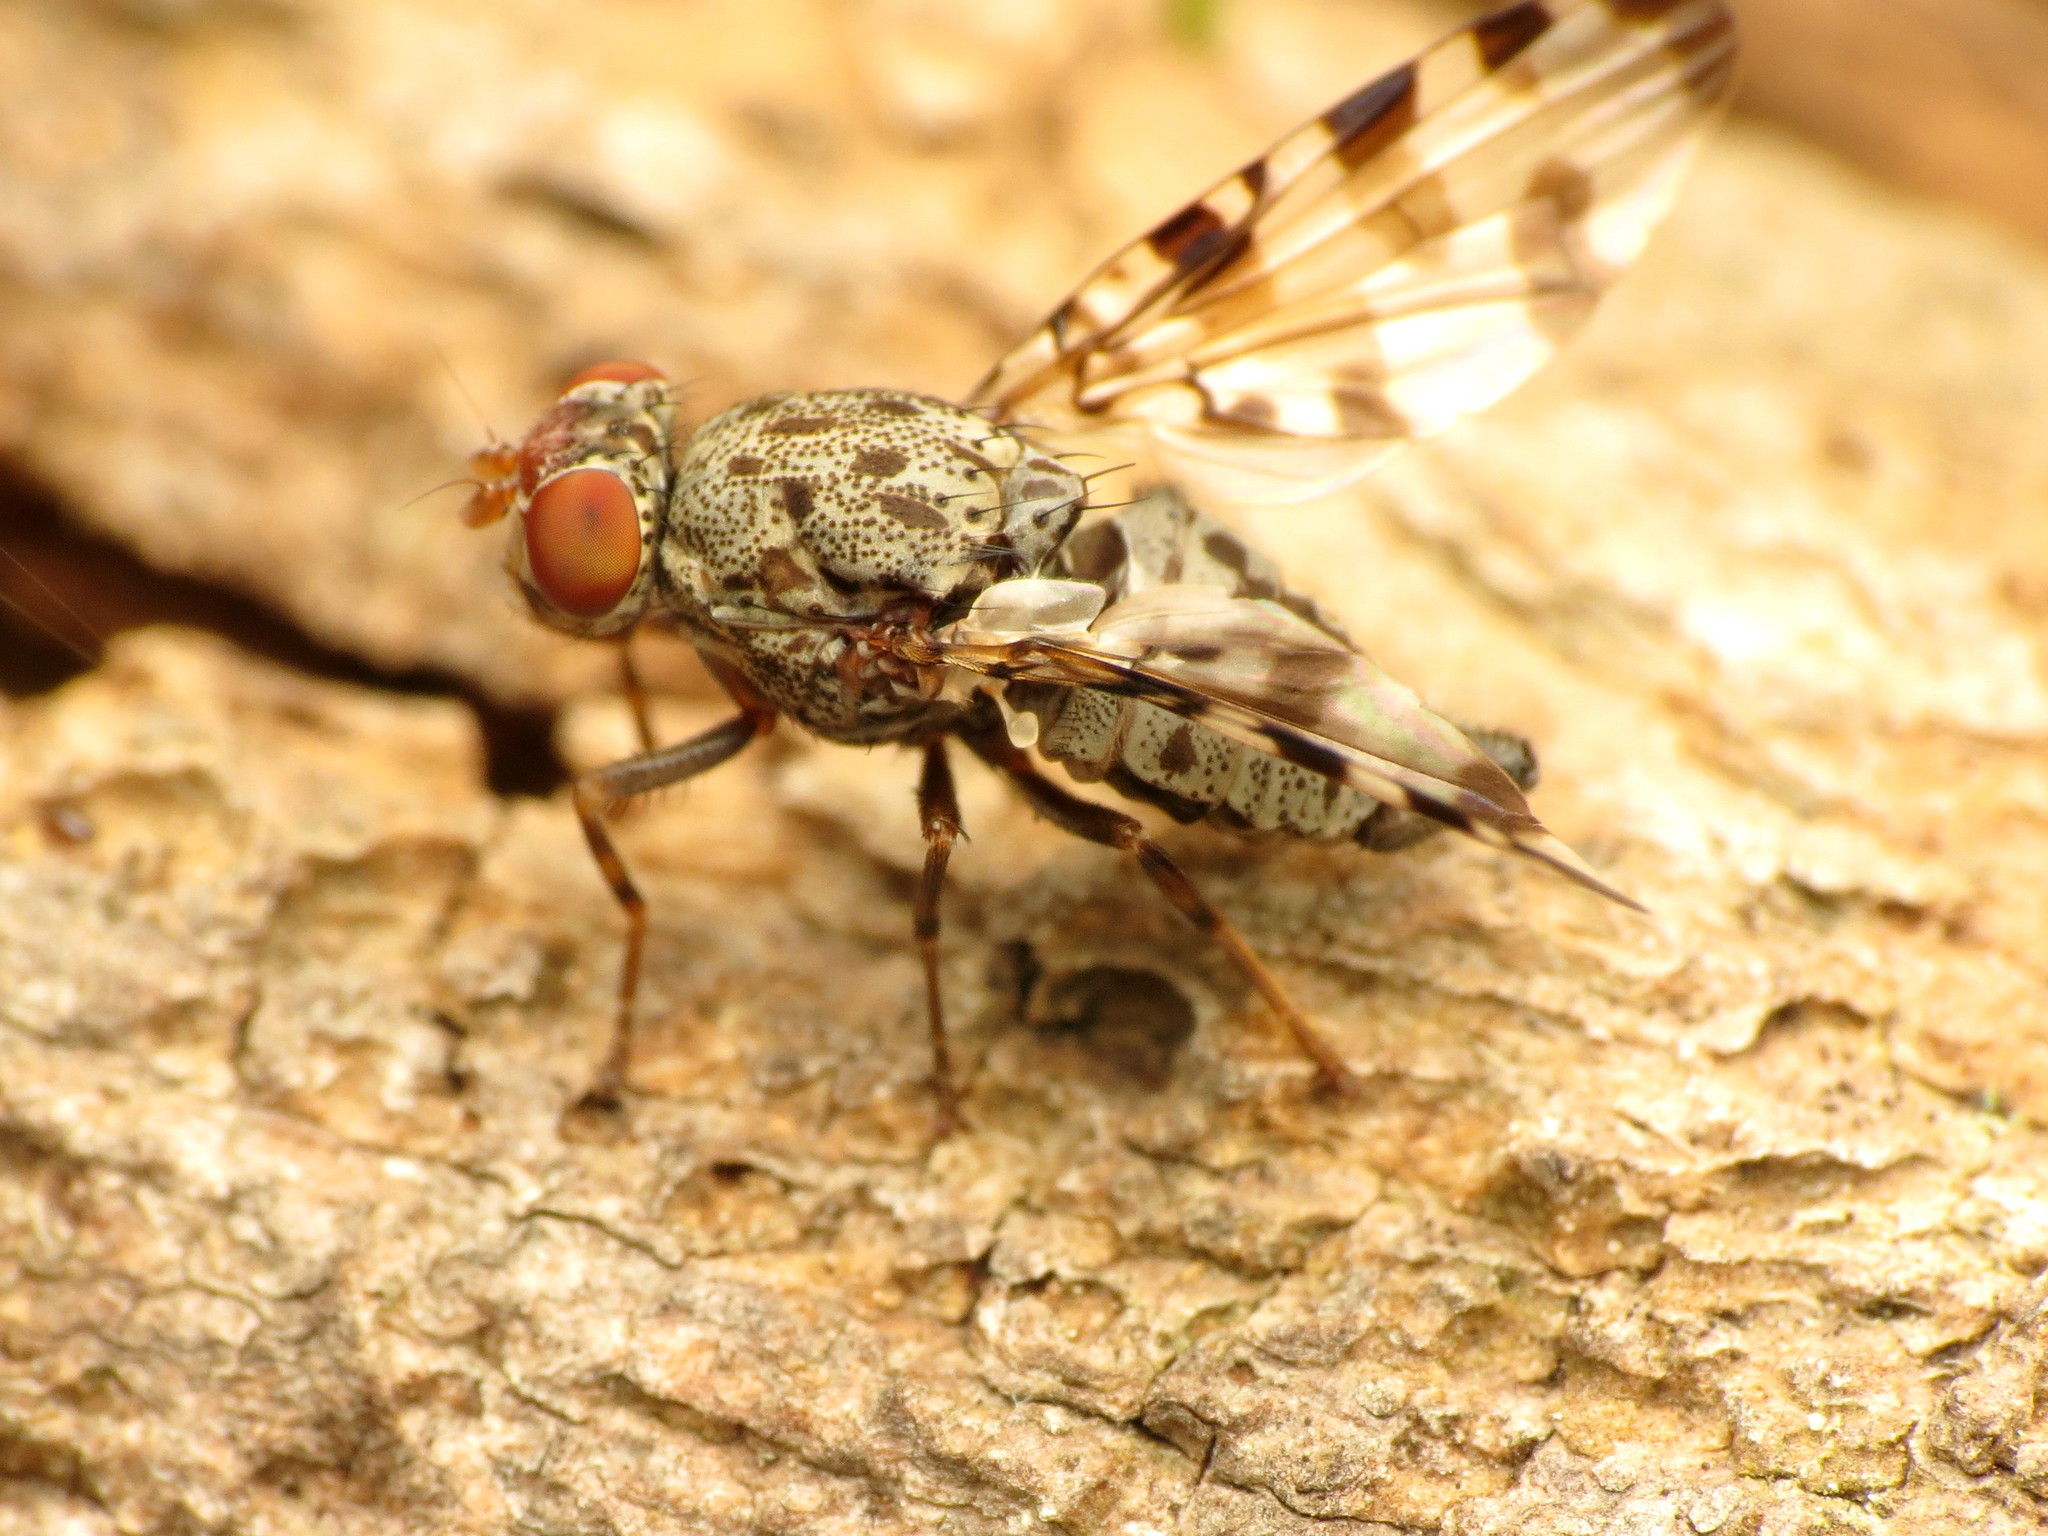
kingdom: Animalia
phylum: Arthropoda
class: Insecta
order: Diptera
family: Ulidiidae
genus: Pseudotephritis
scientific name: Pseudotephritis approximata
